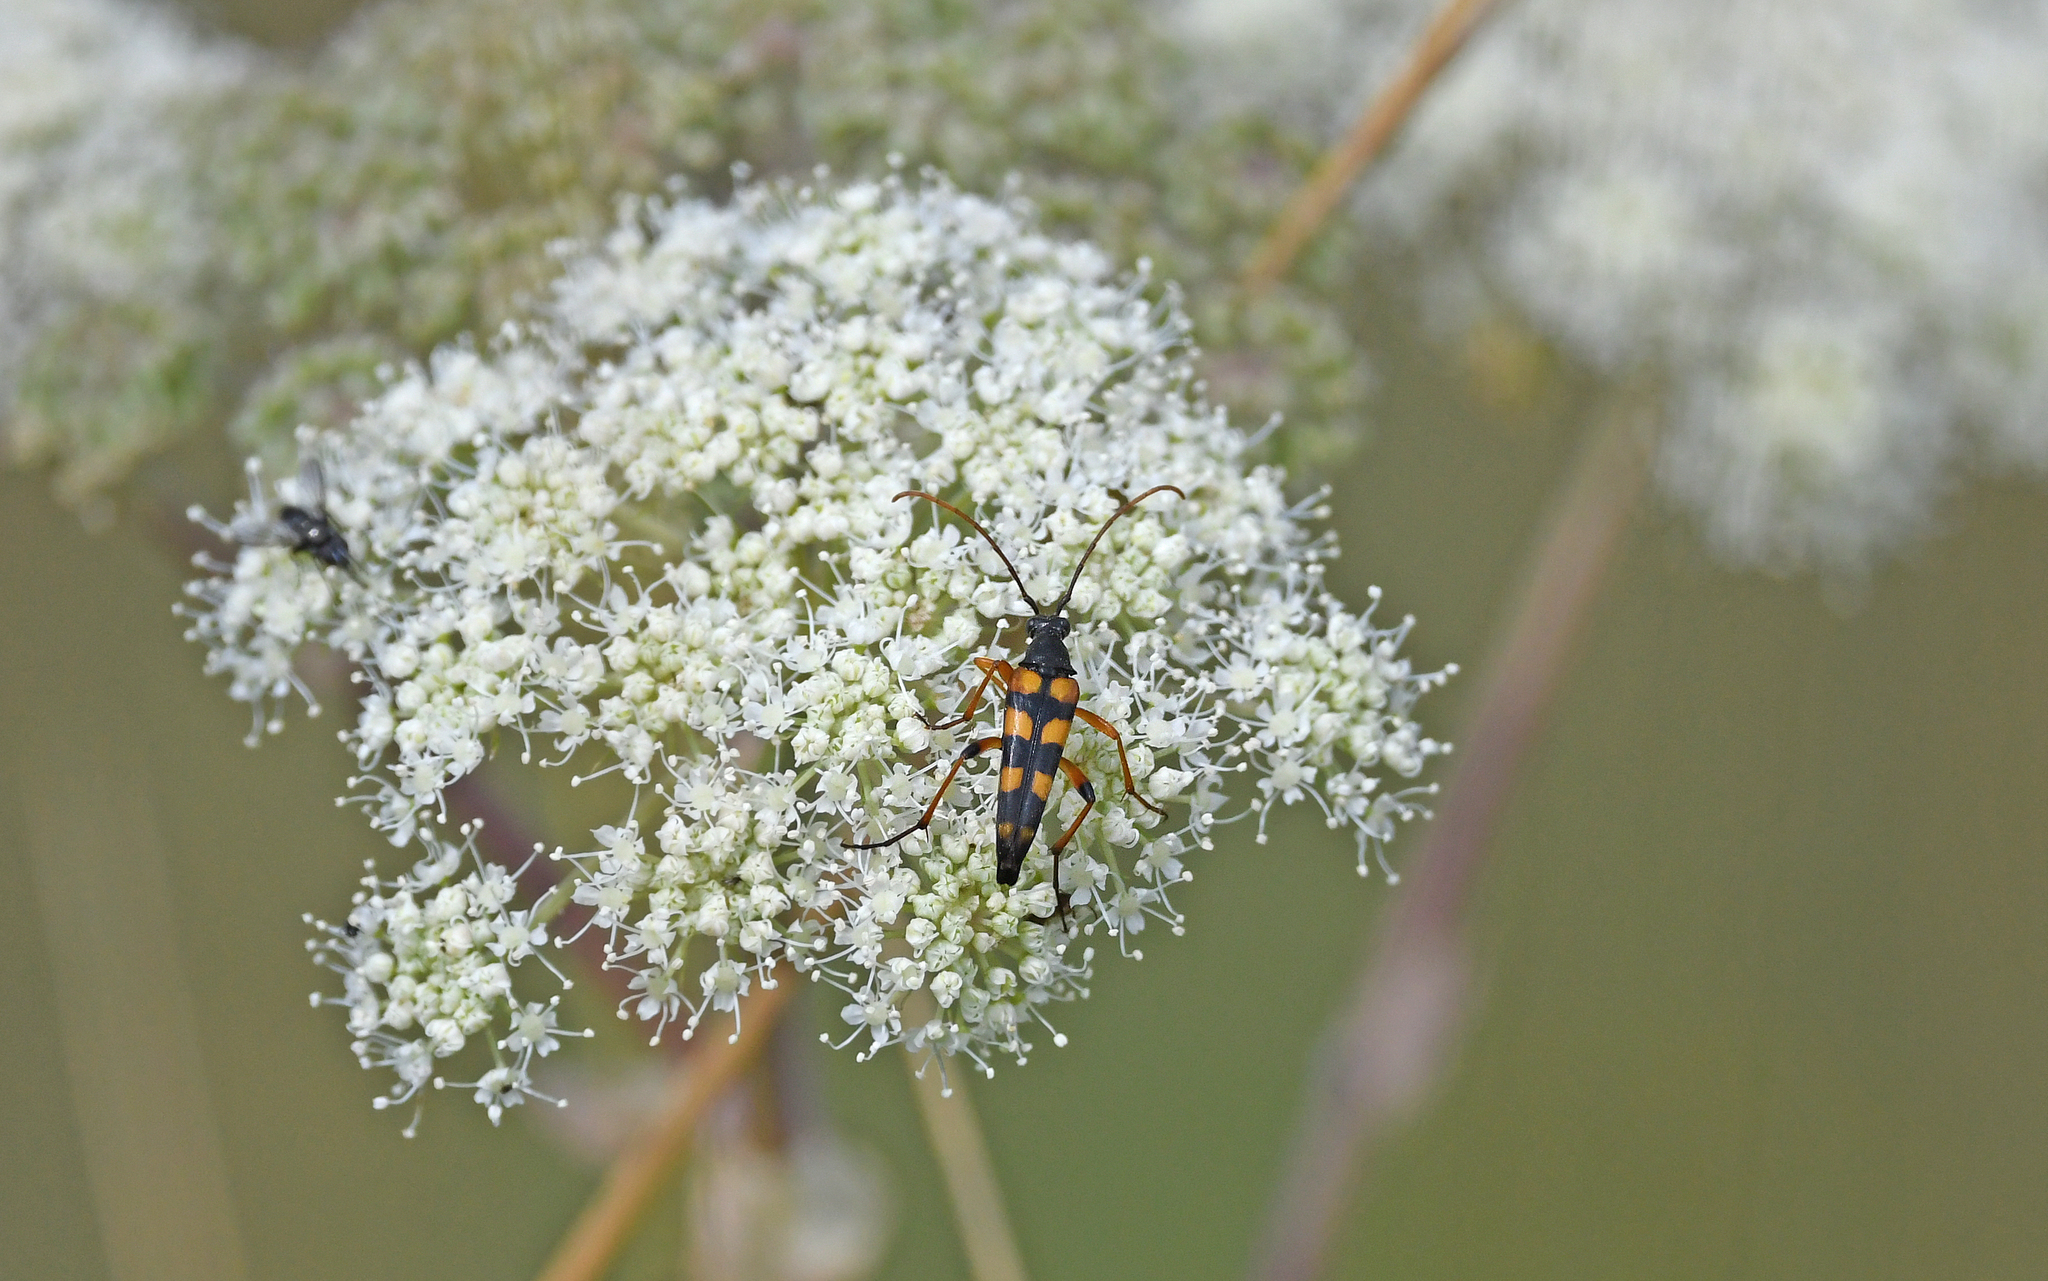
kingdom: Animalia
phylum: Arthropoda
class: Insecta
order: Coleoptera
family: Cerambycidae
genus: Strangalia
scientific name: Strangalia attenuata
